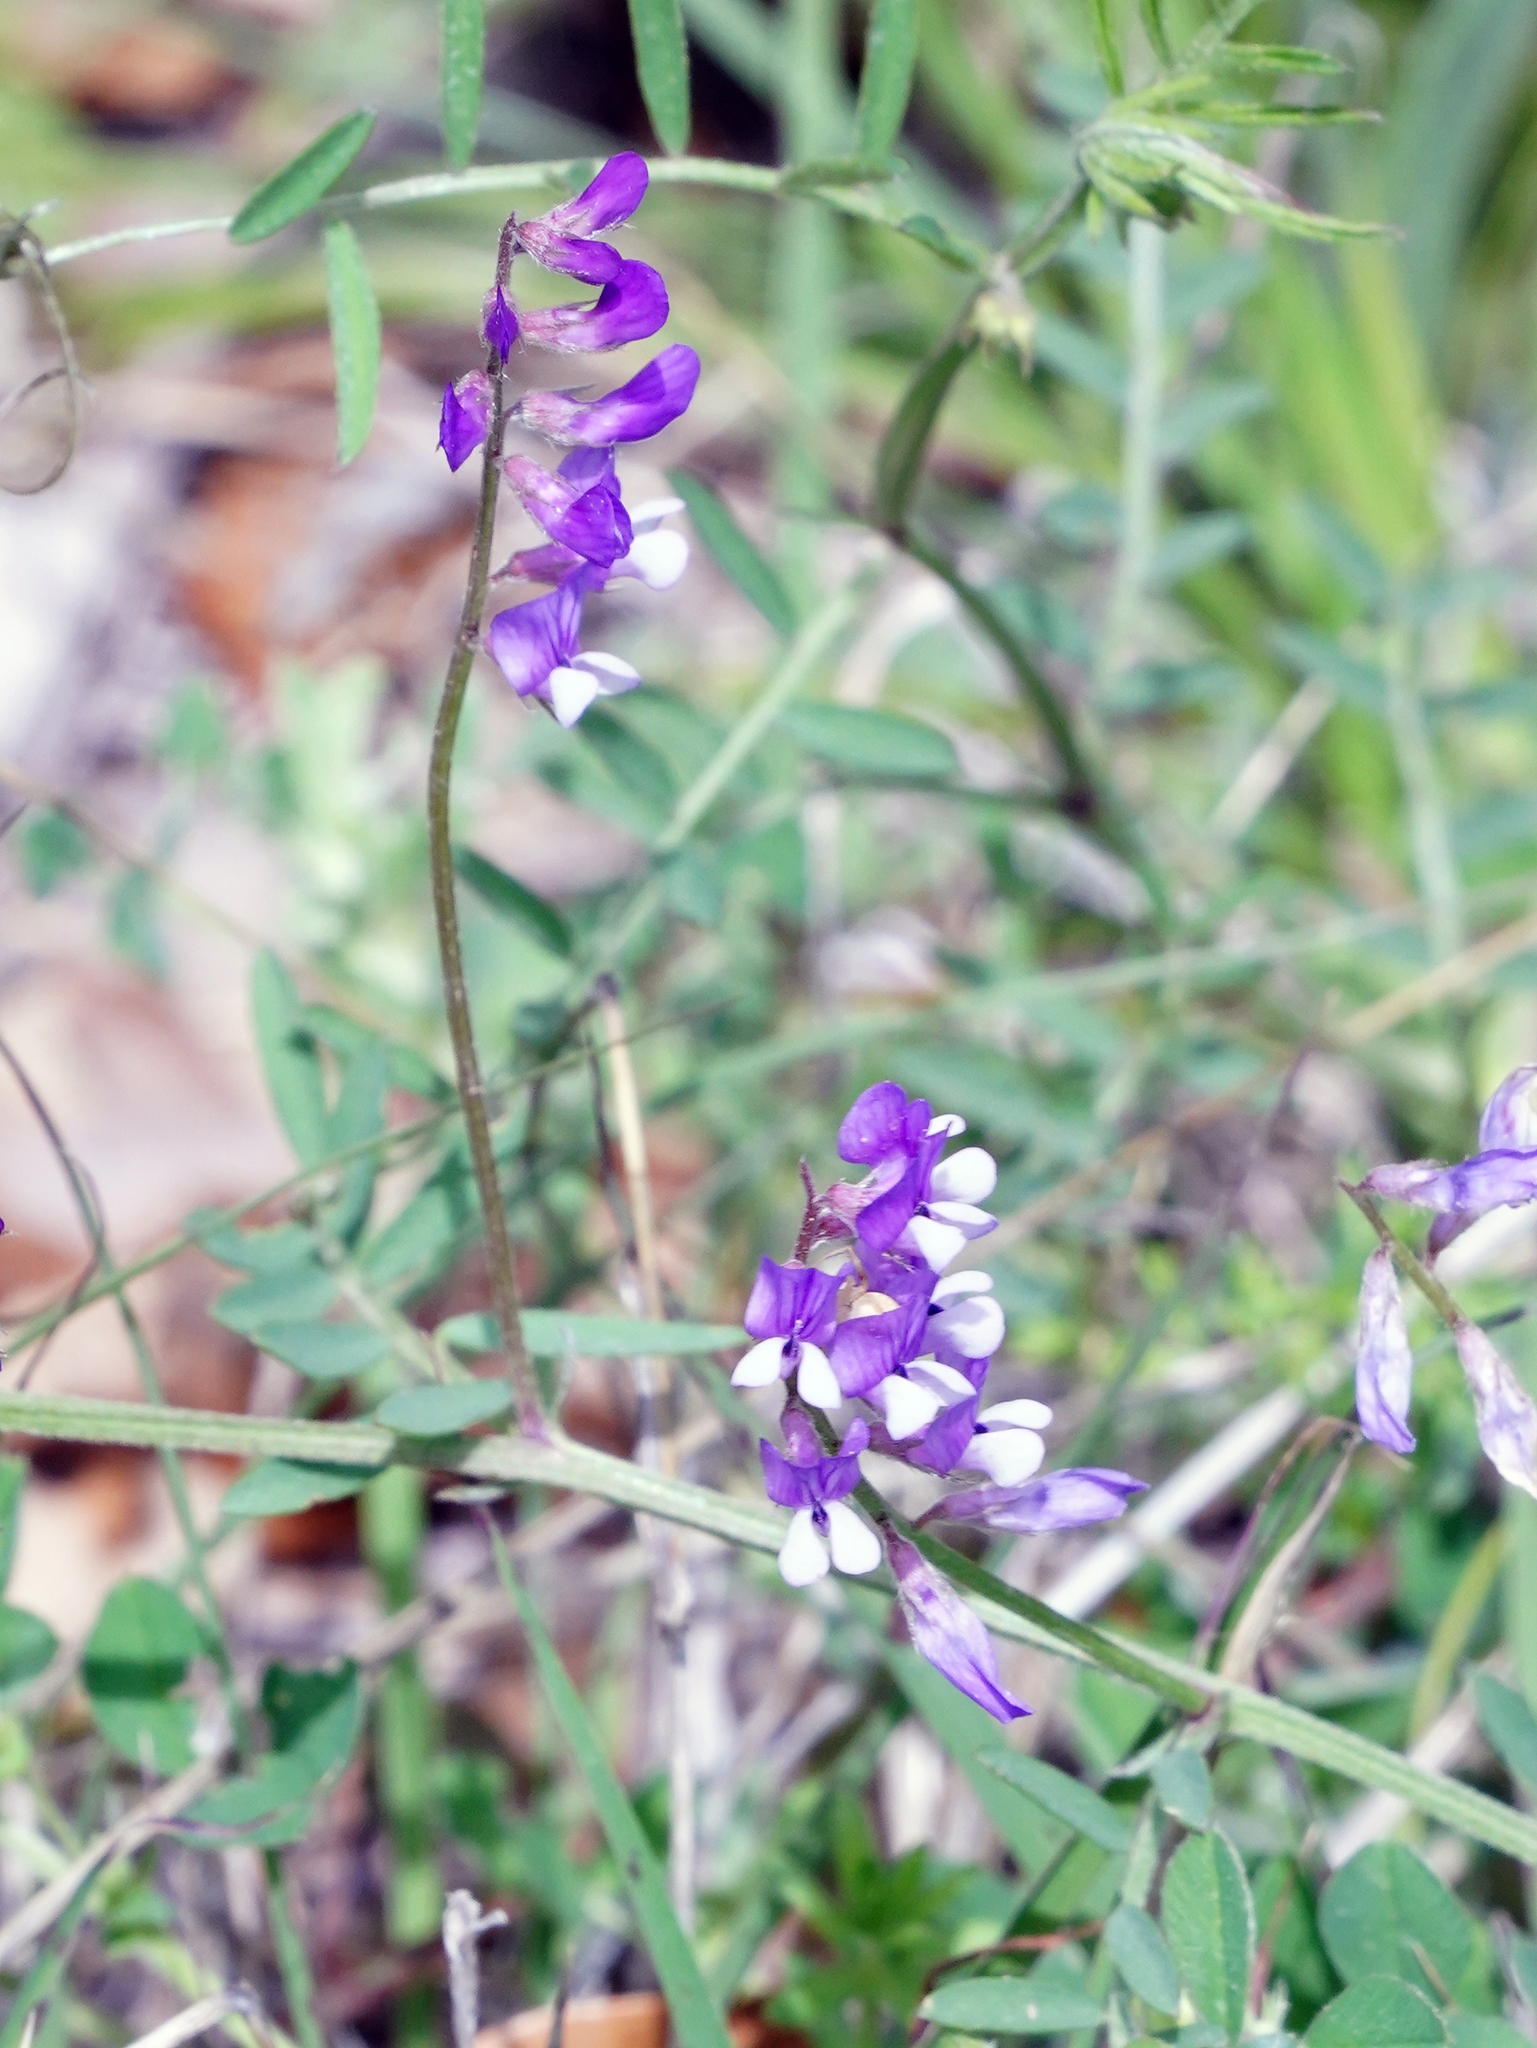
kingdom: Plantae
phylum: Tracheophyta
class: Magnoliopsida
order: Fabales
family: Fabaceae
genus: Vicia
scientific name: Vicia ludoviciana
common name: Louisiana vetch
